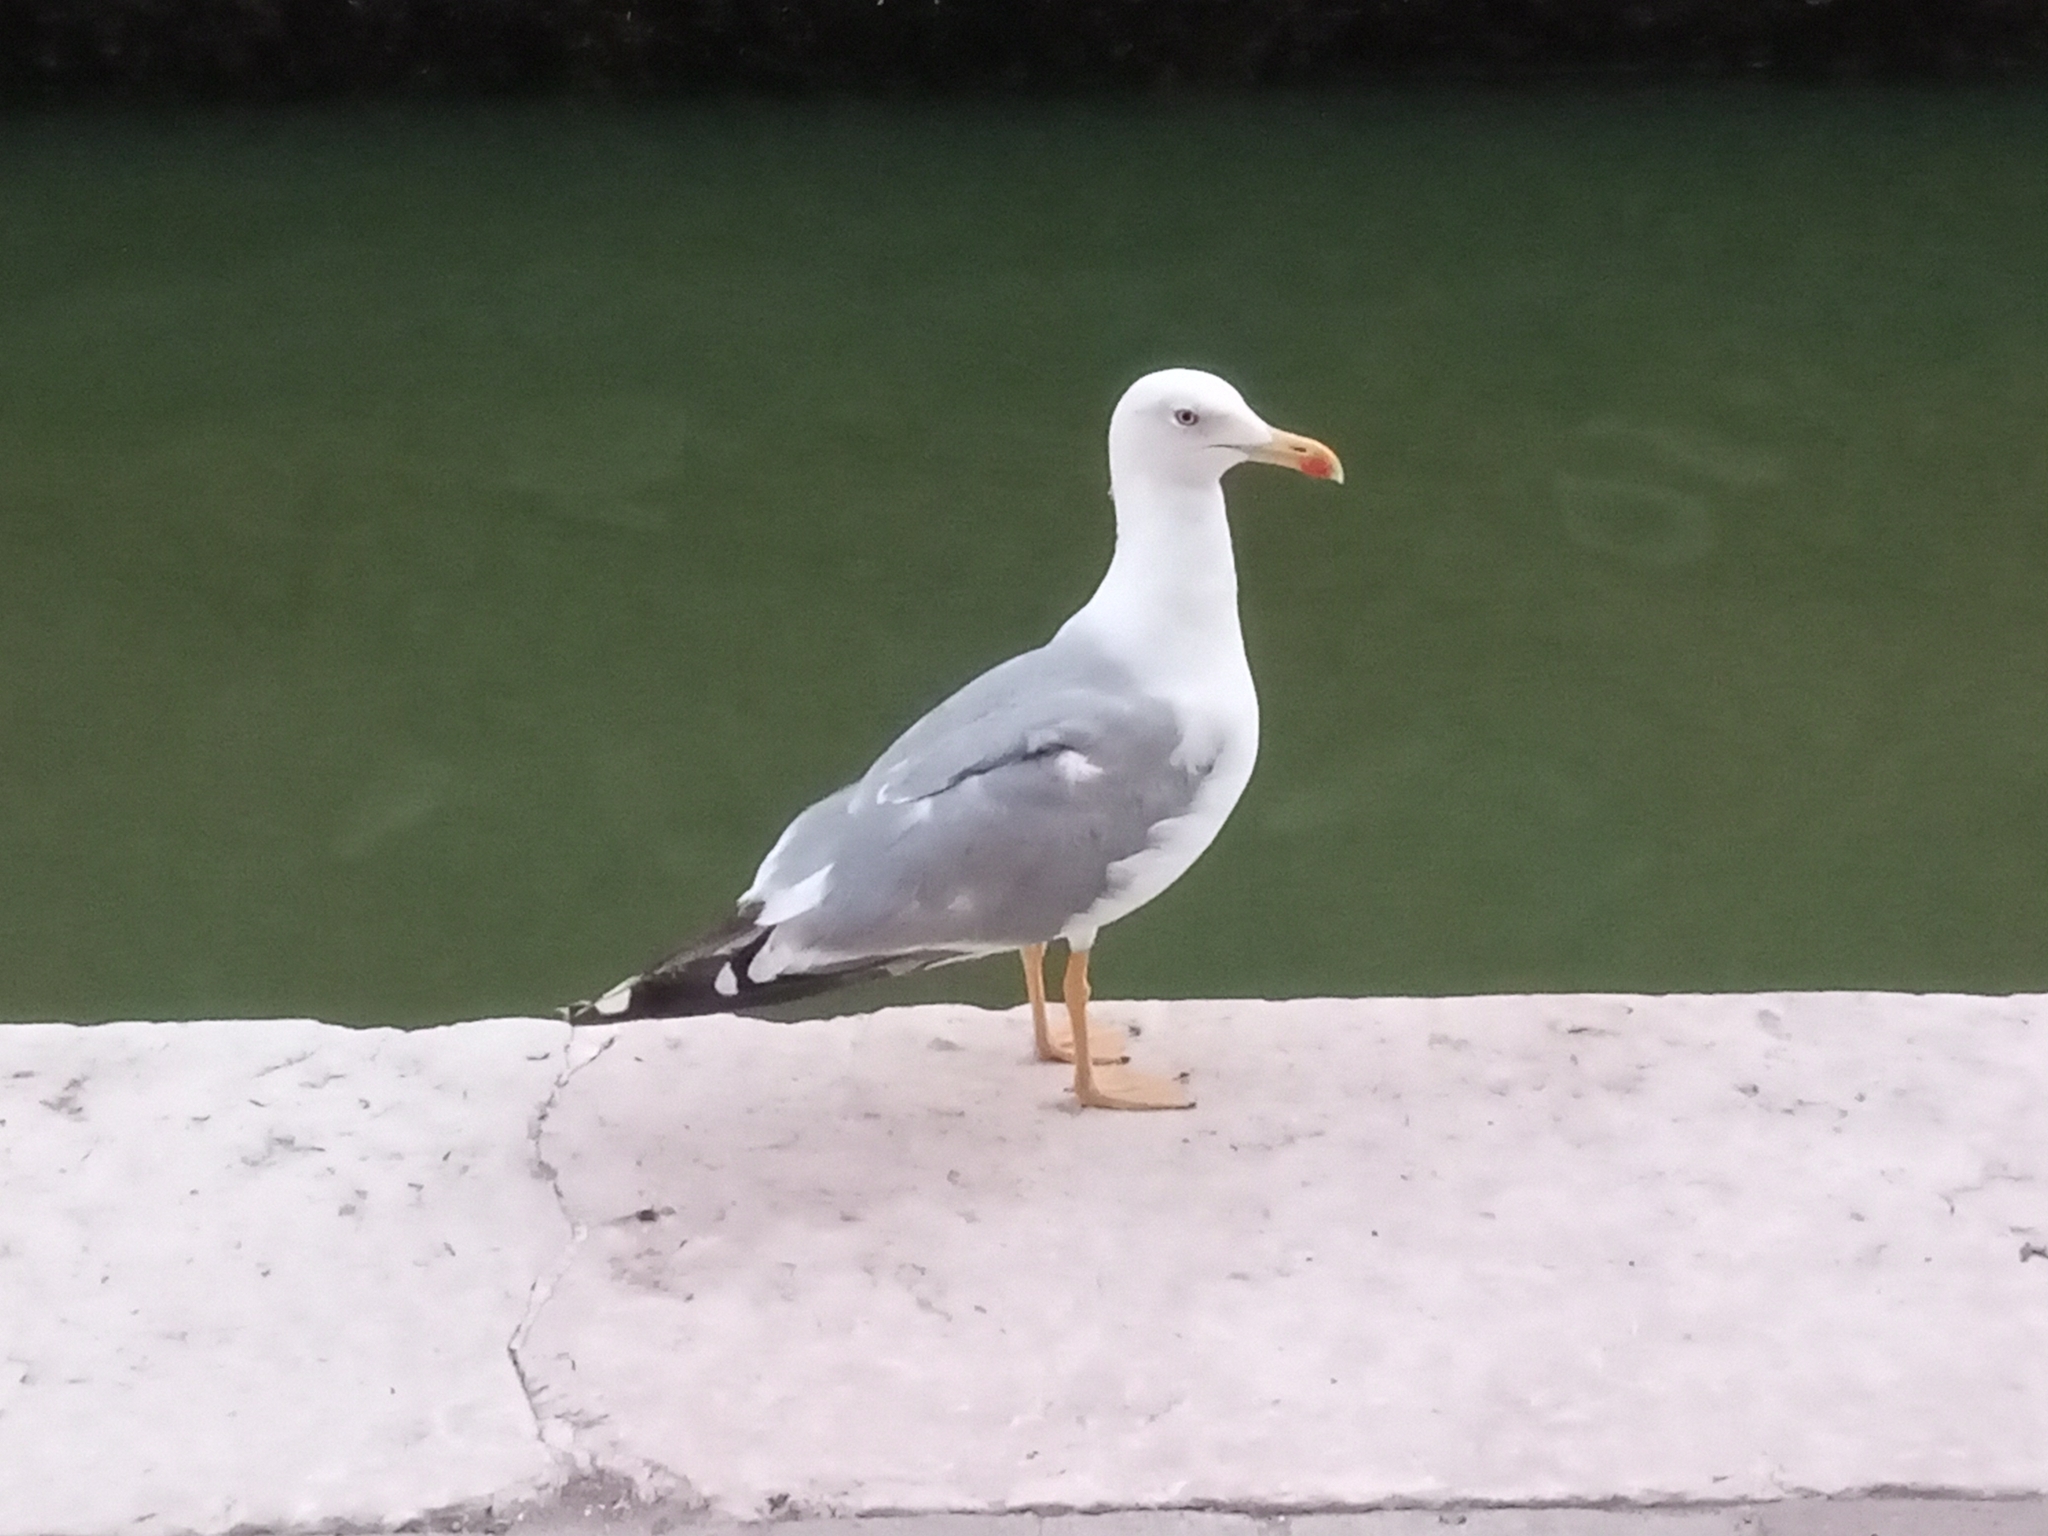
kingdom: Animalia
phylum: Chordata
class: Aves
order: Charadriiformes
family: Laridae
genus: Larus
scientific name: Larus michahellis
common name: Yellow-legged gull
